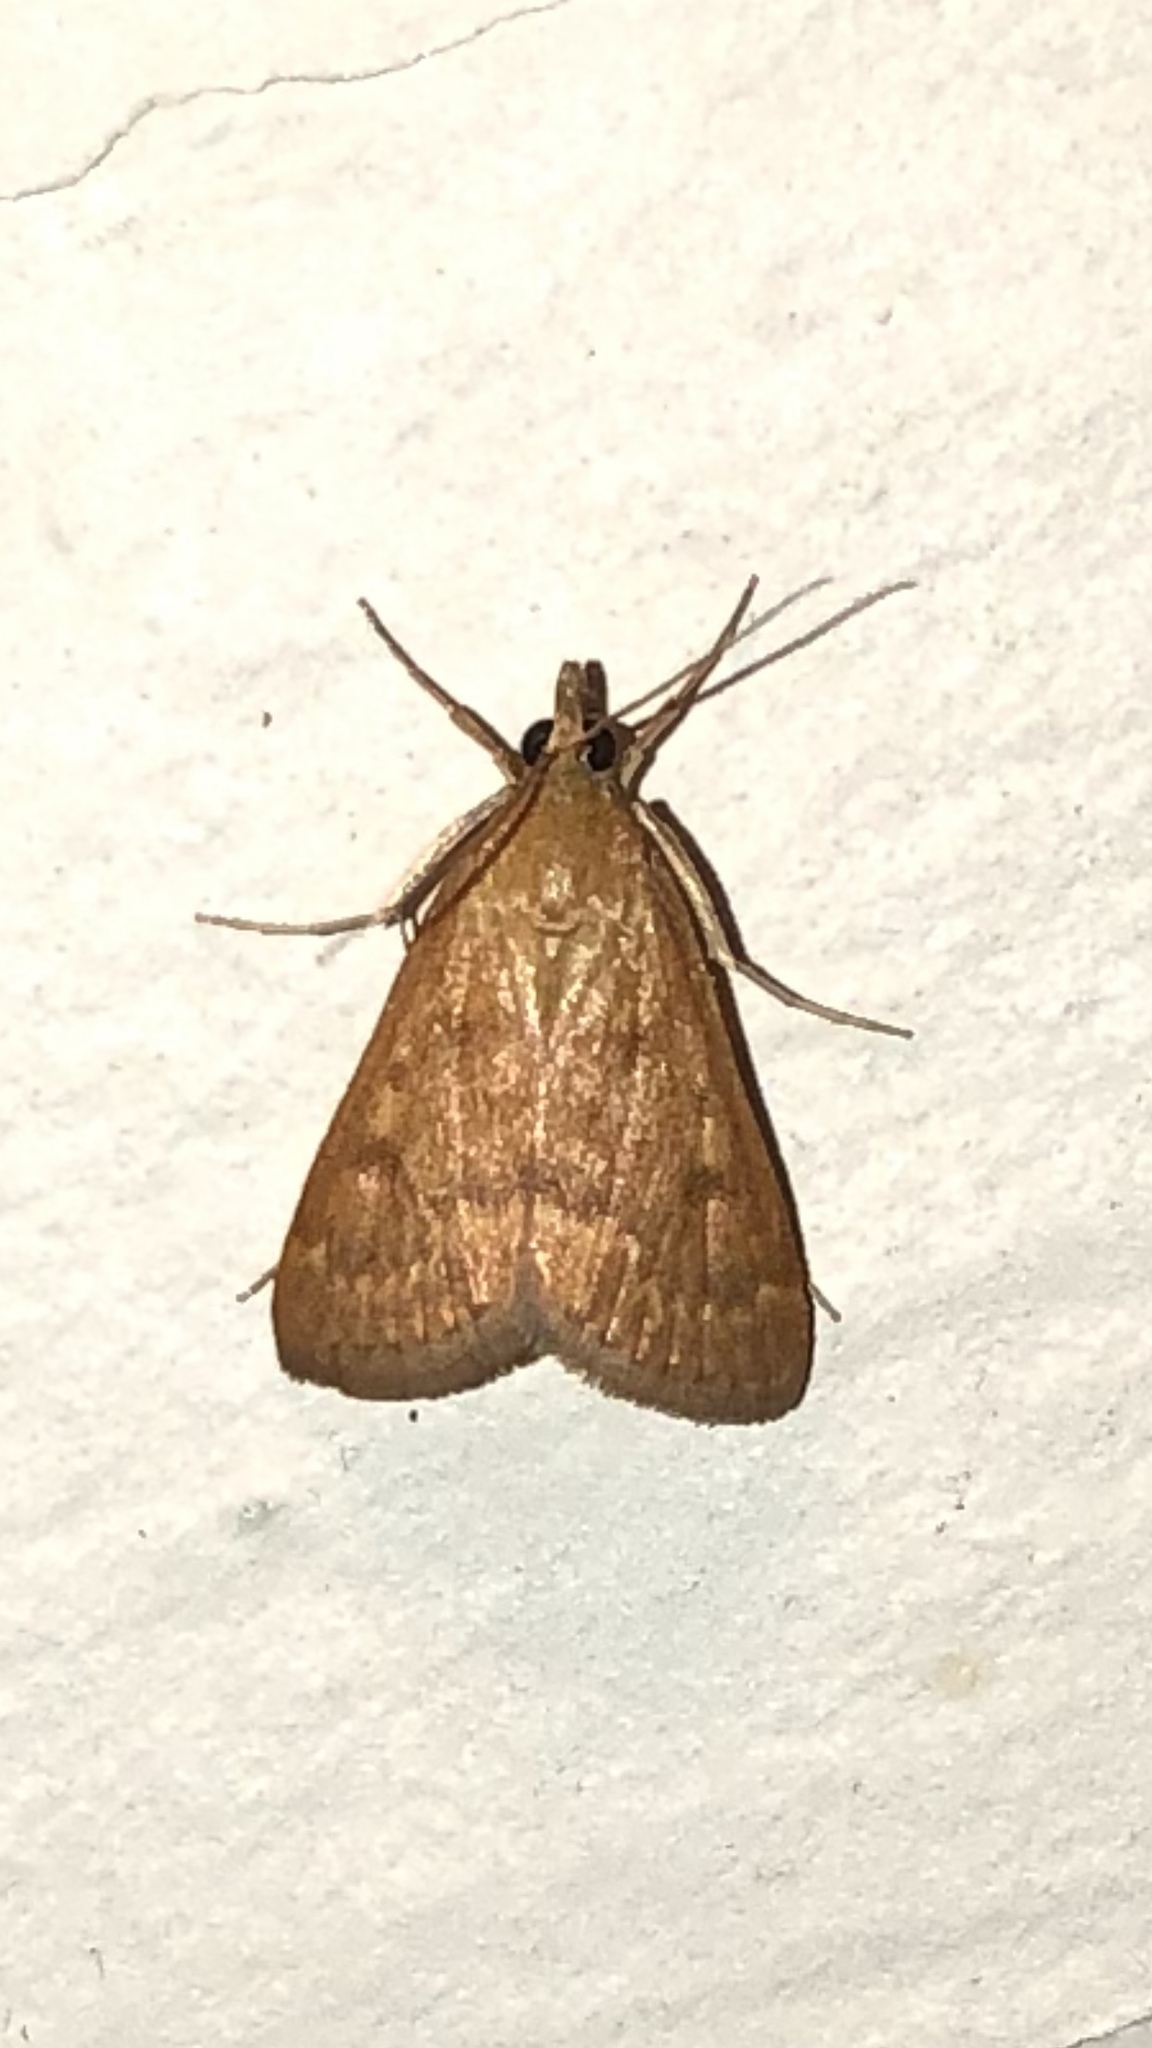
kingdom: Animalia
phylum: Arthropoda
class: Insecta
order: Lepidoptera
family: Crambidae
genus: Achyra
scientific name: Achyra rantalis
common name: Garden webworm
